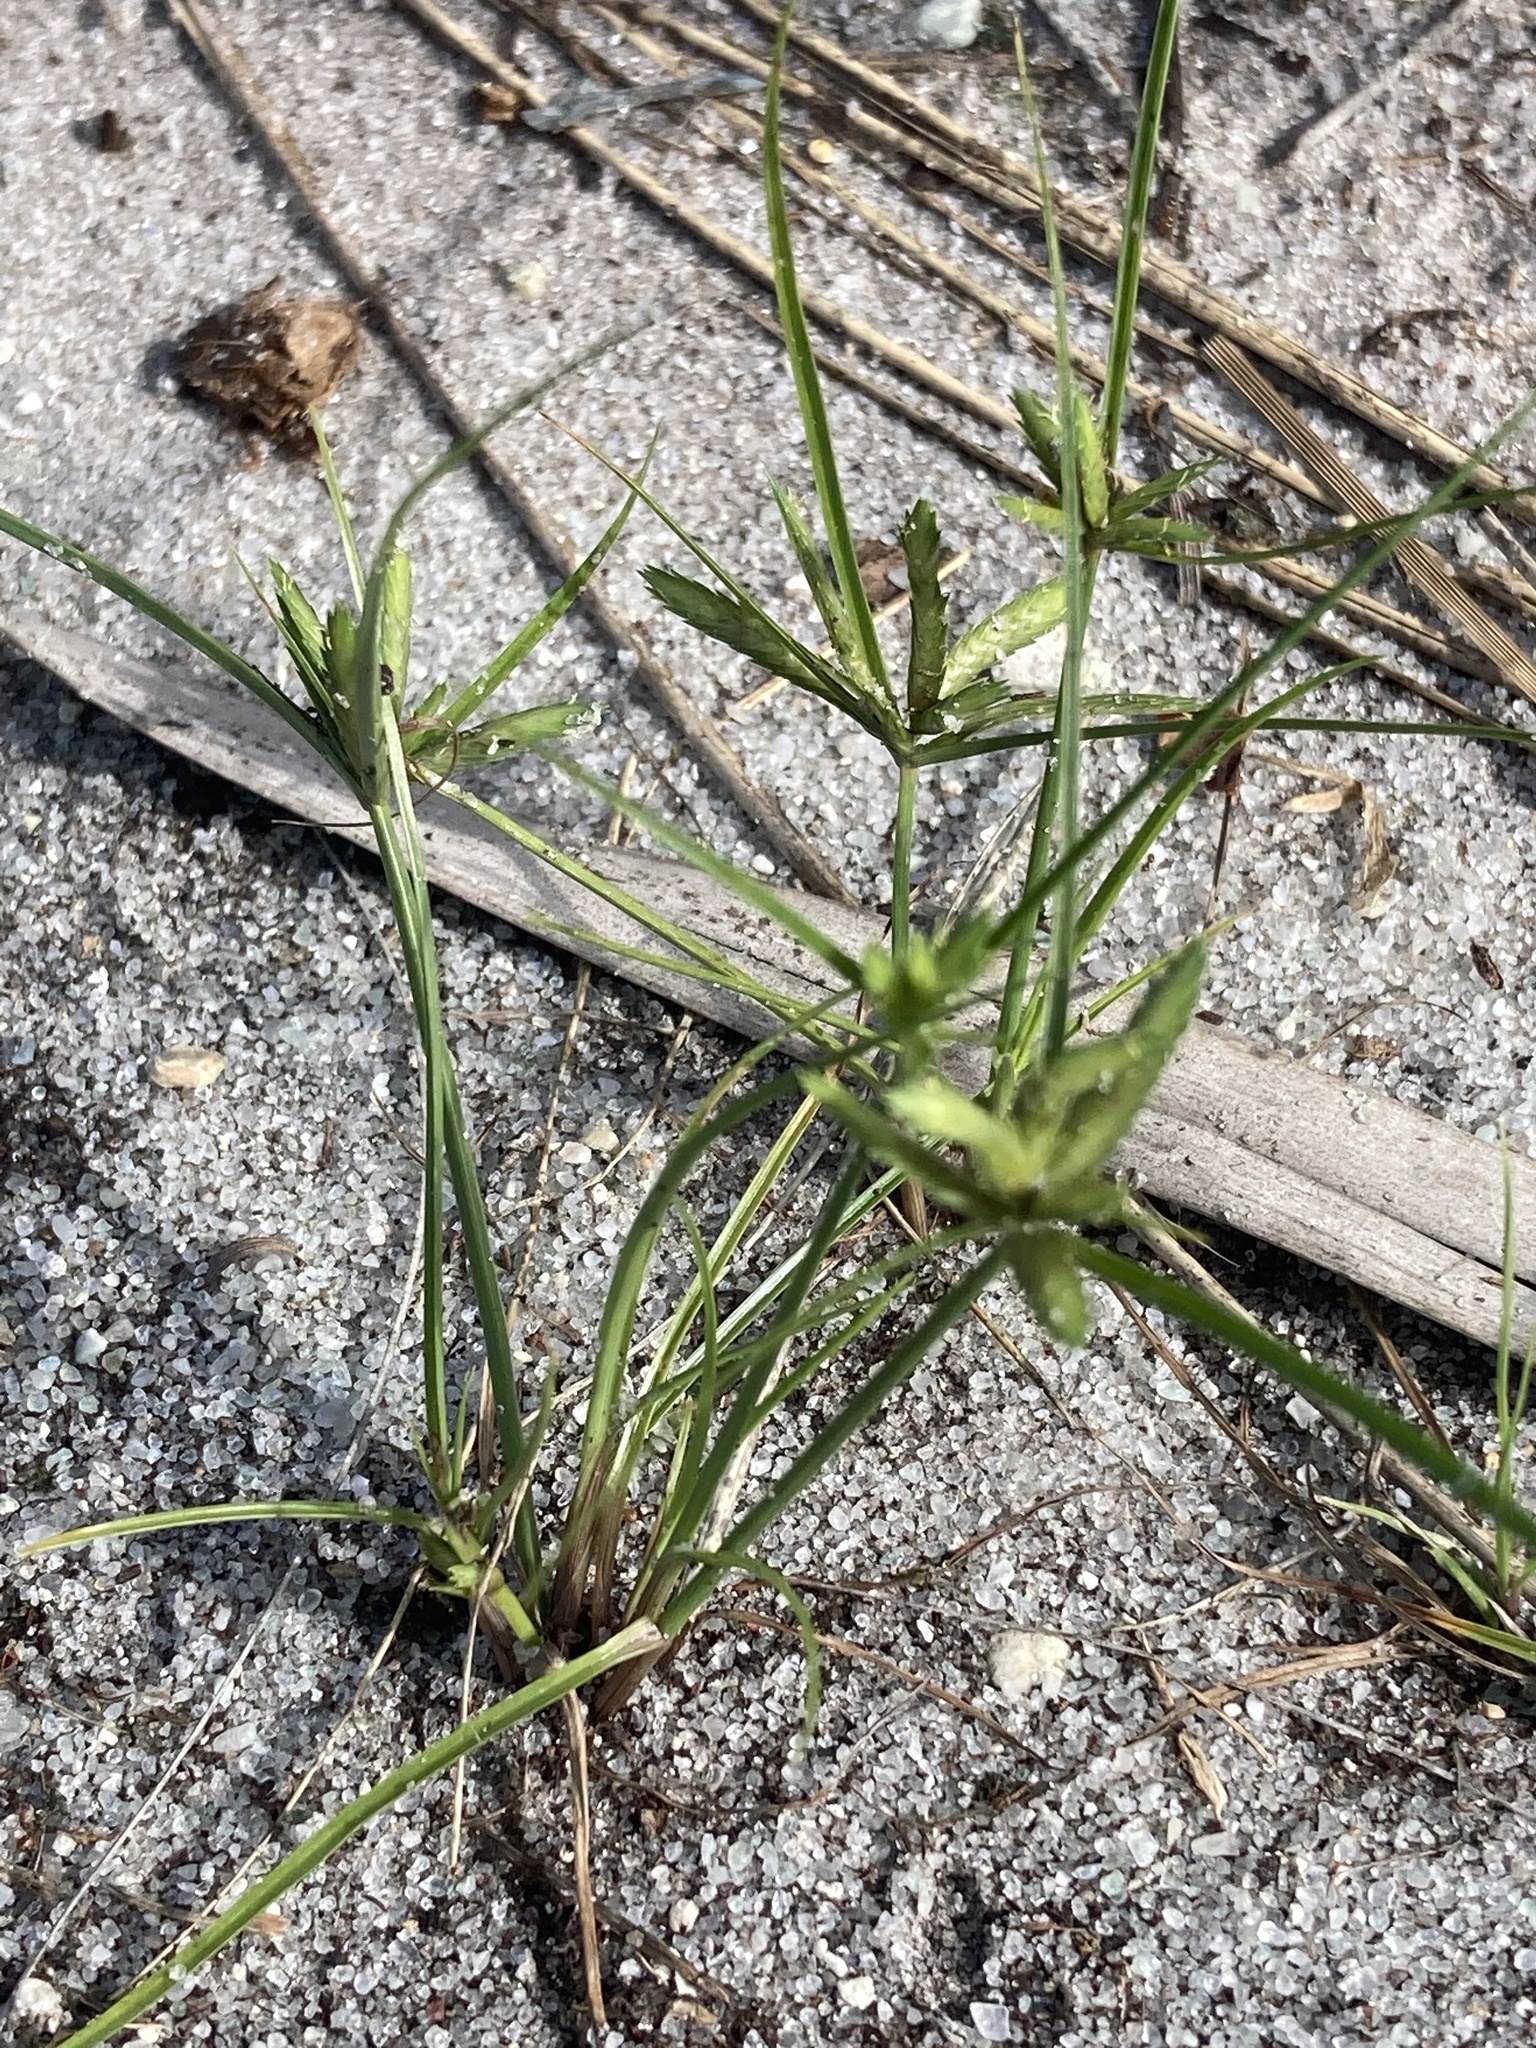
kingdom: Plantae
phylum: Tracheophyta
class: Liliopsida
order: Poales
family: Cyperaceae
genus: Cyperus
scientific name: Cyperus compressus
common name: Poorland flatsedge
